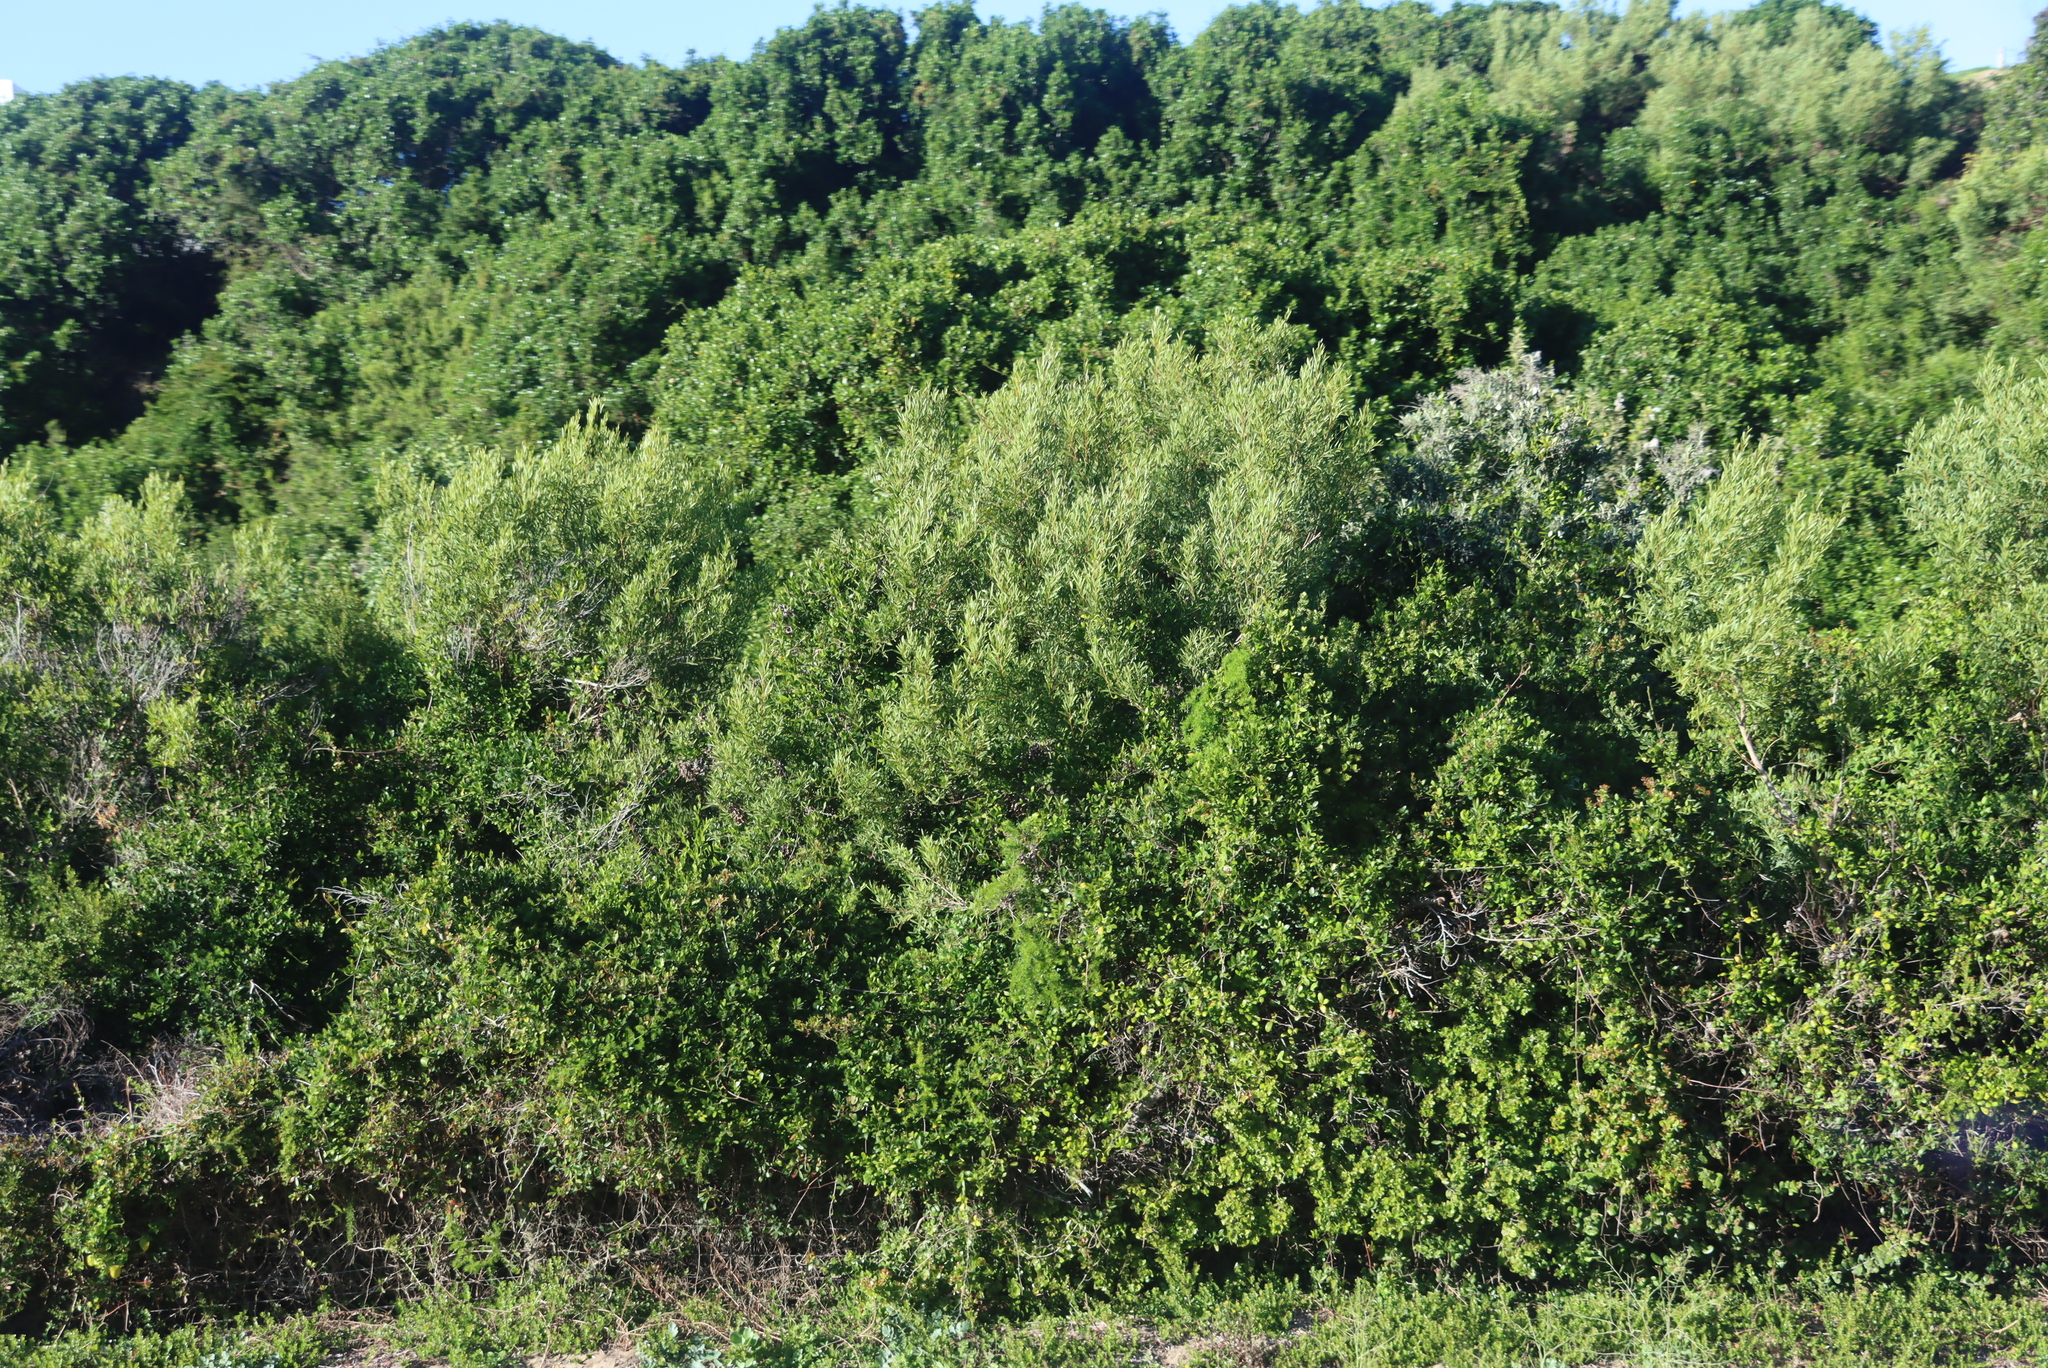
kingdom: Plantae
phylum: Tracheophyta
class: Magnoliopsida
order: Fabales
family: Fabaceae
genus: Acacia
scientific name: Acacia cyclops
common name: Coastal wattle
